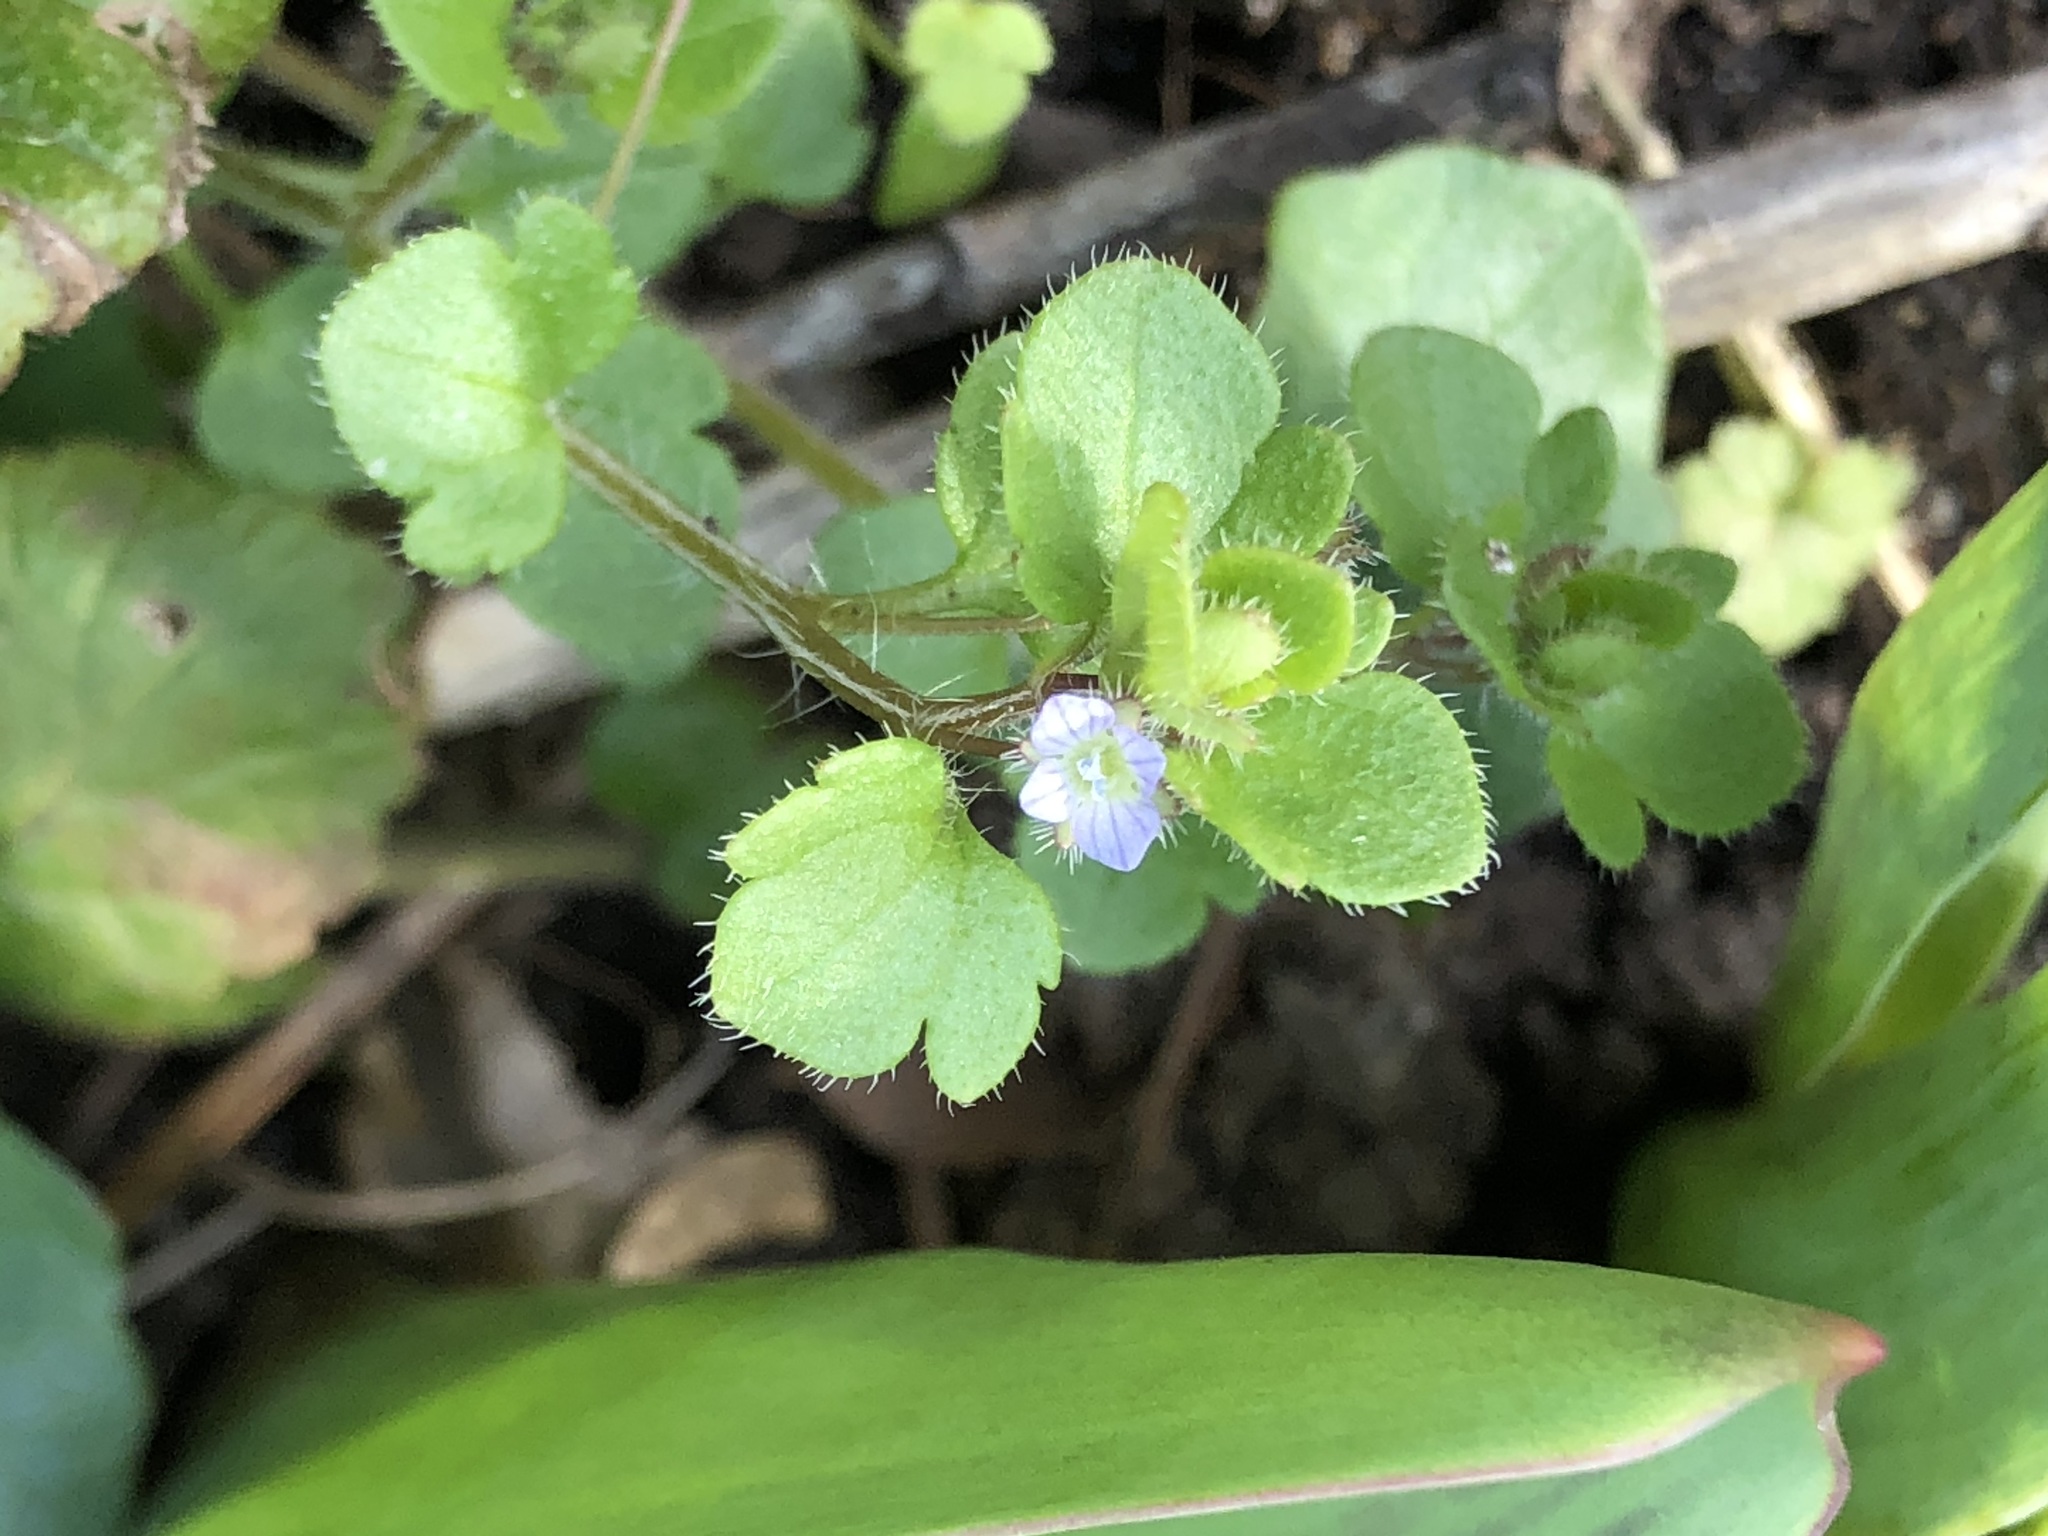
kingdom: Plantae
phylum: Tracheophyta
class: Magnoliopsida
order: Lamiales
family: Plantaginaceae
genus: Veronica
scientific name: Veronica hederifolia
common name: Ivy-leaved speedwell
